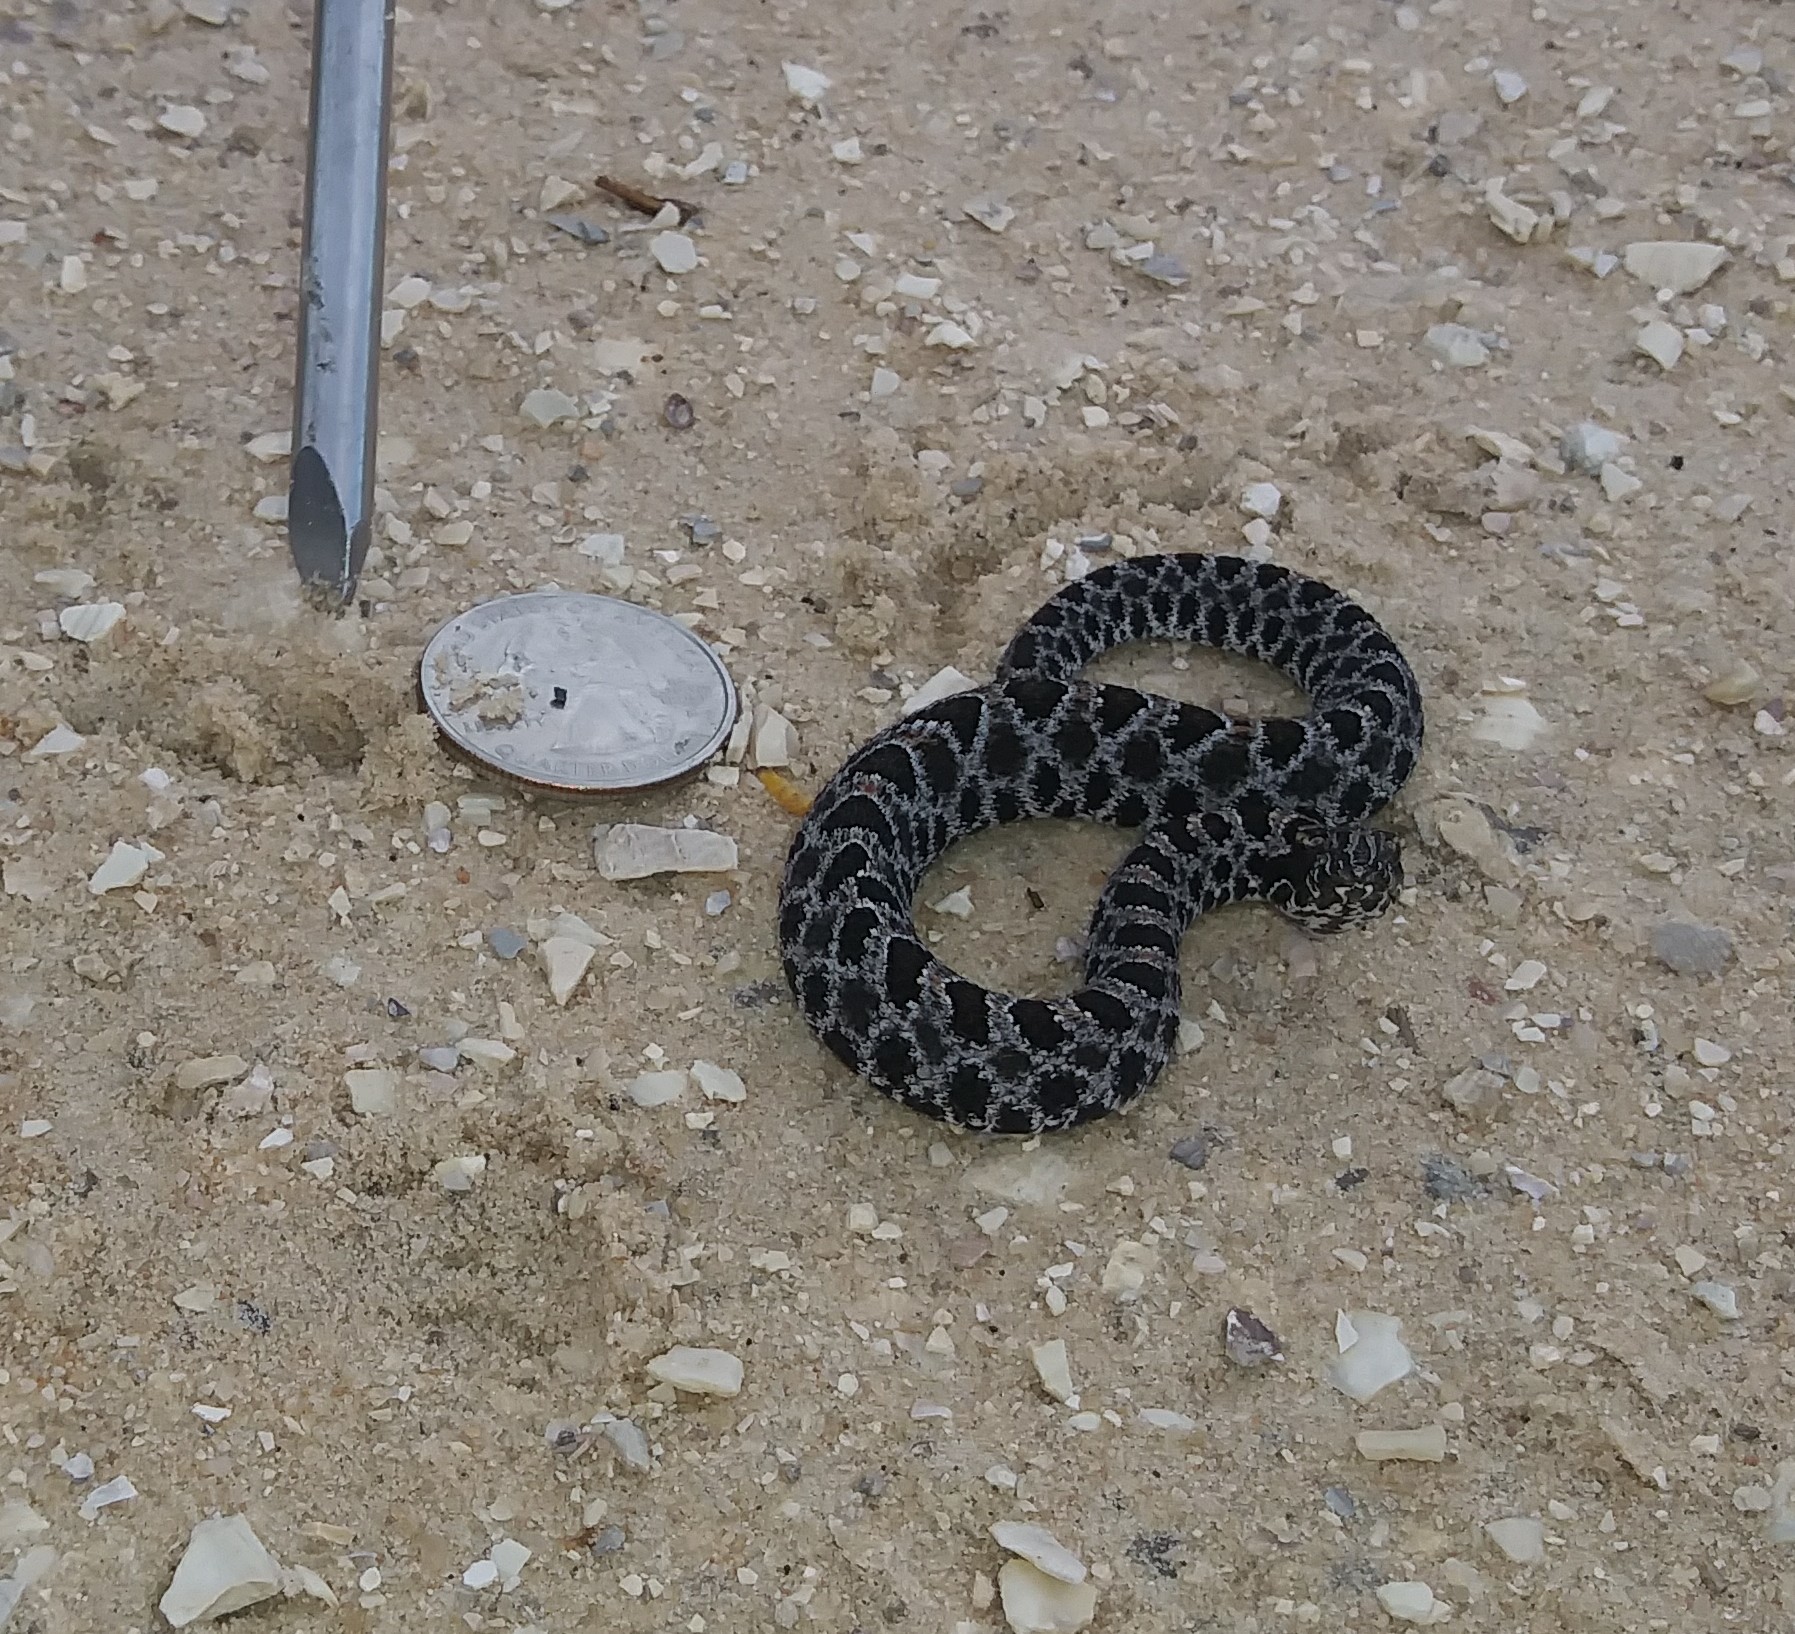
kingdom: Animalia
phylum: Chordata
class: Squamata
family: Viperidae
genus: Sistrurus
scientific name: Sistrurus miliarius
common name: Pygmy rattlesnake
